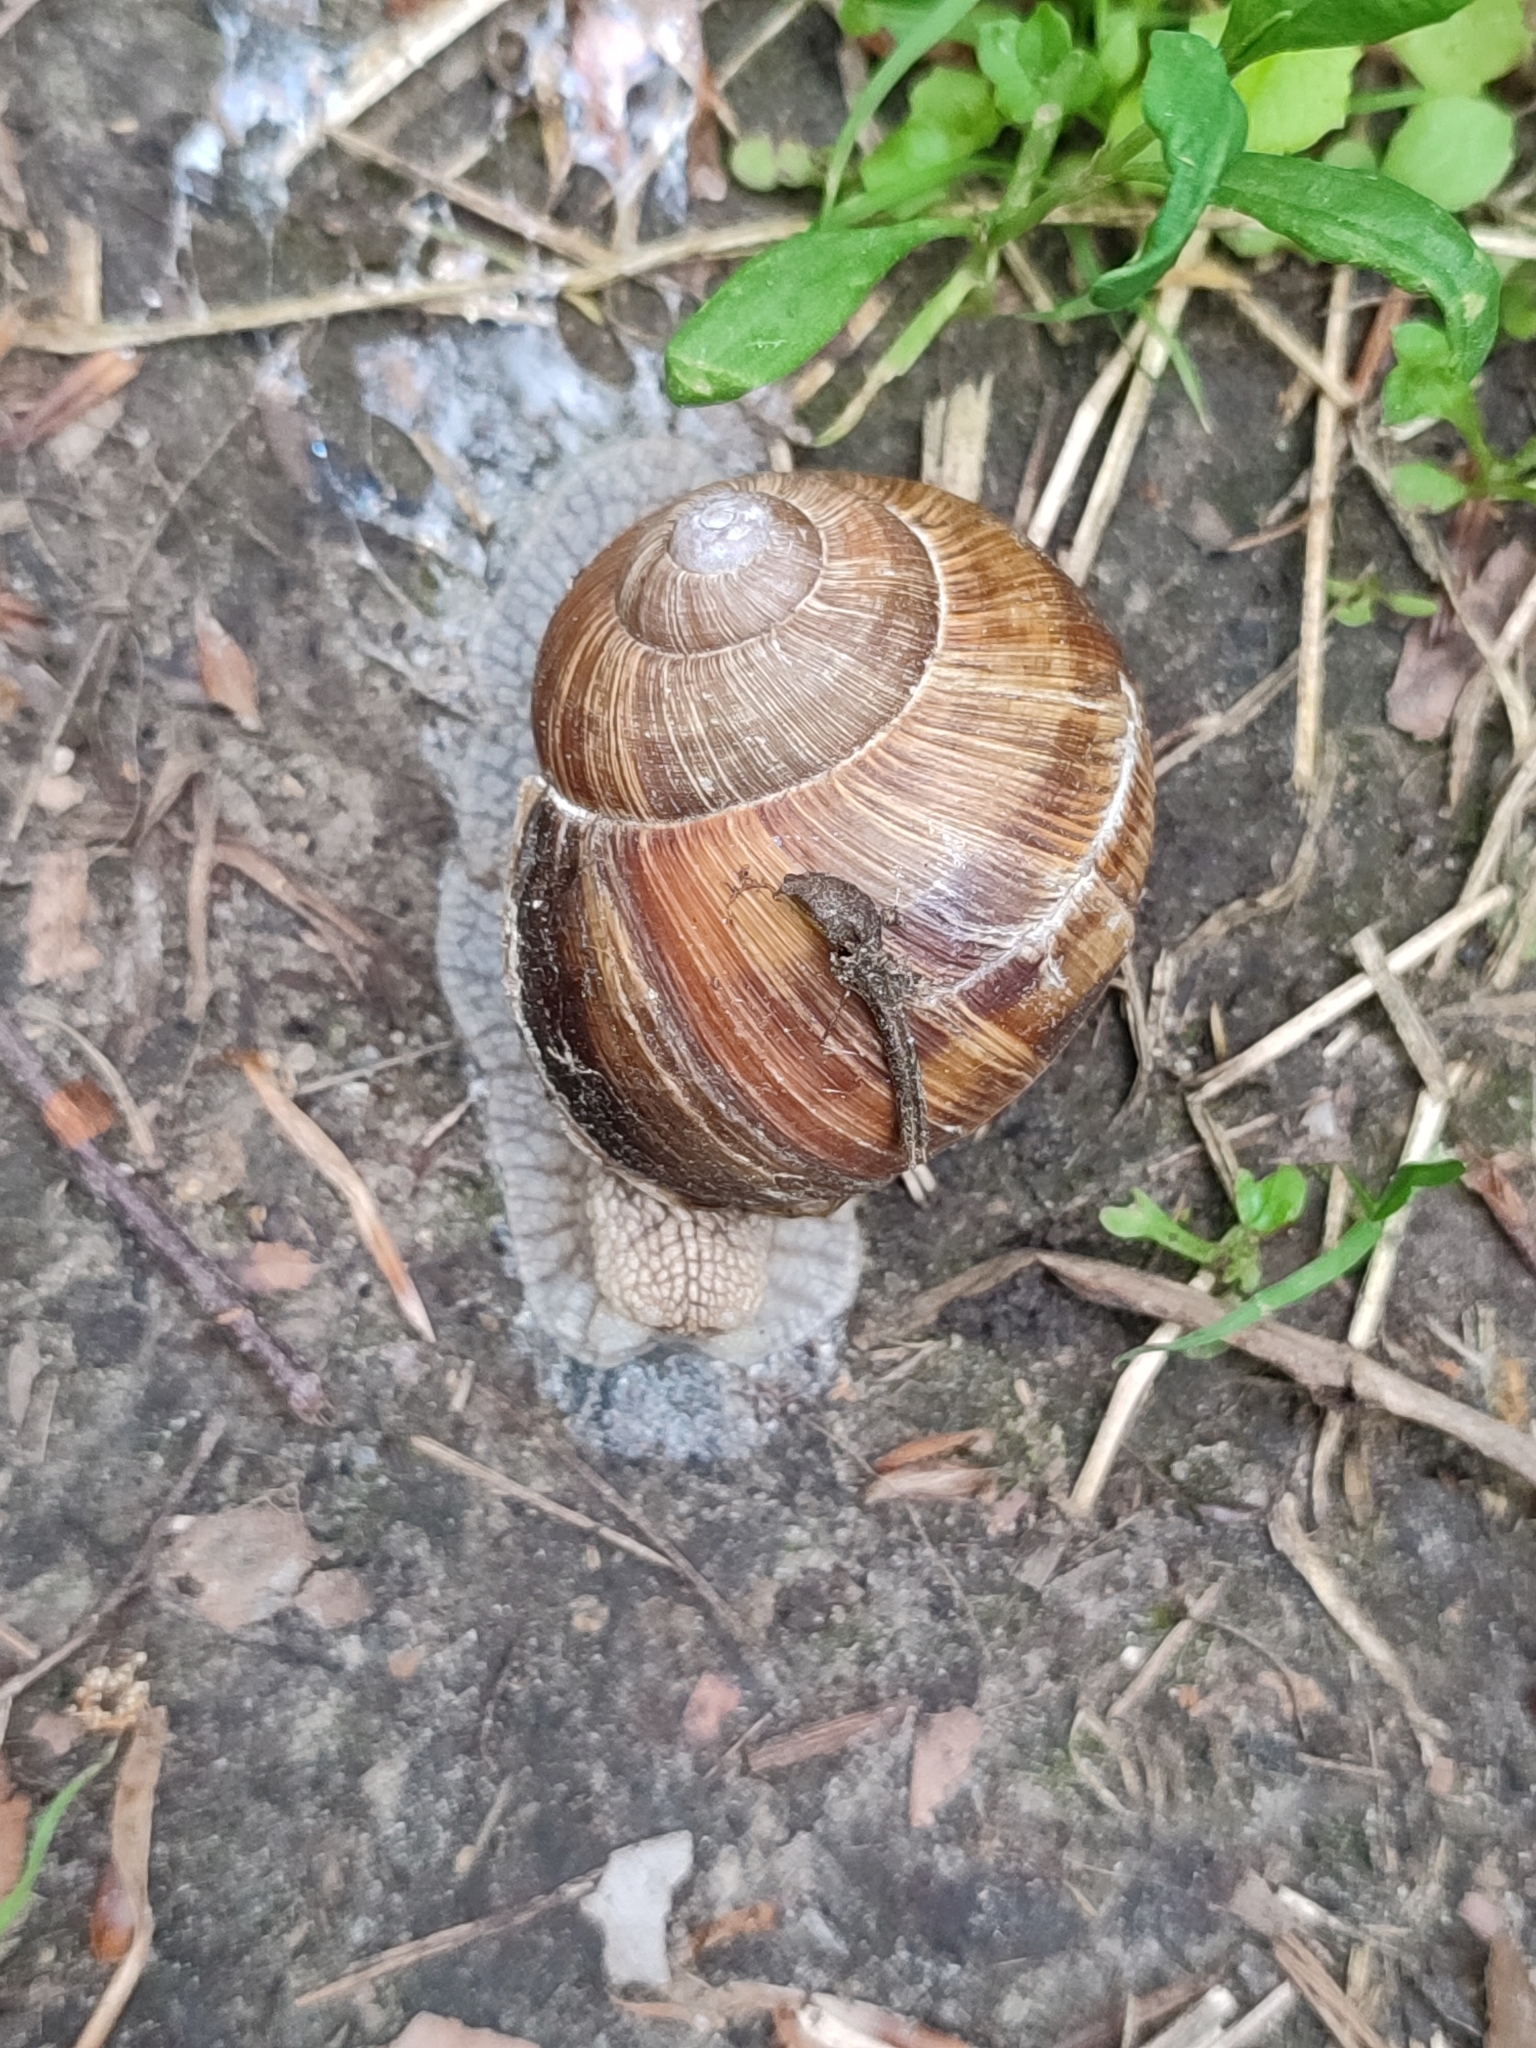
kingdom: Animalia
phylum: Mollusca
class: Gastropoda
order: Stylommatophora
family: Helicidae
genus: Helix
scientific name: Helix pomatia
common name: Roman snail
